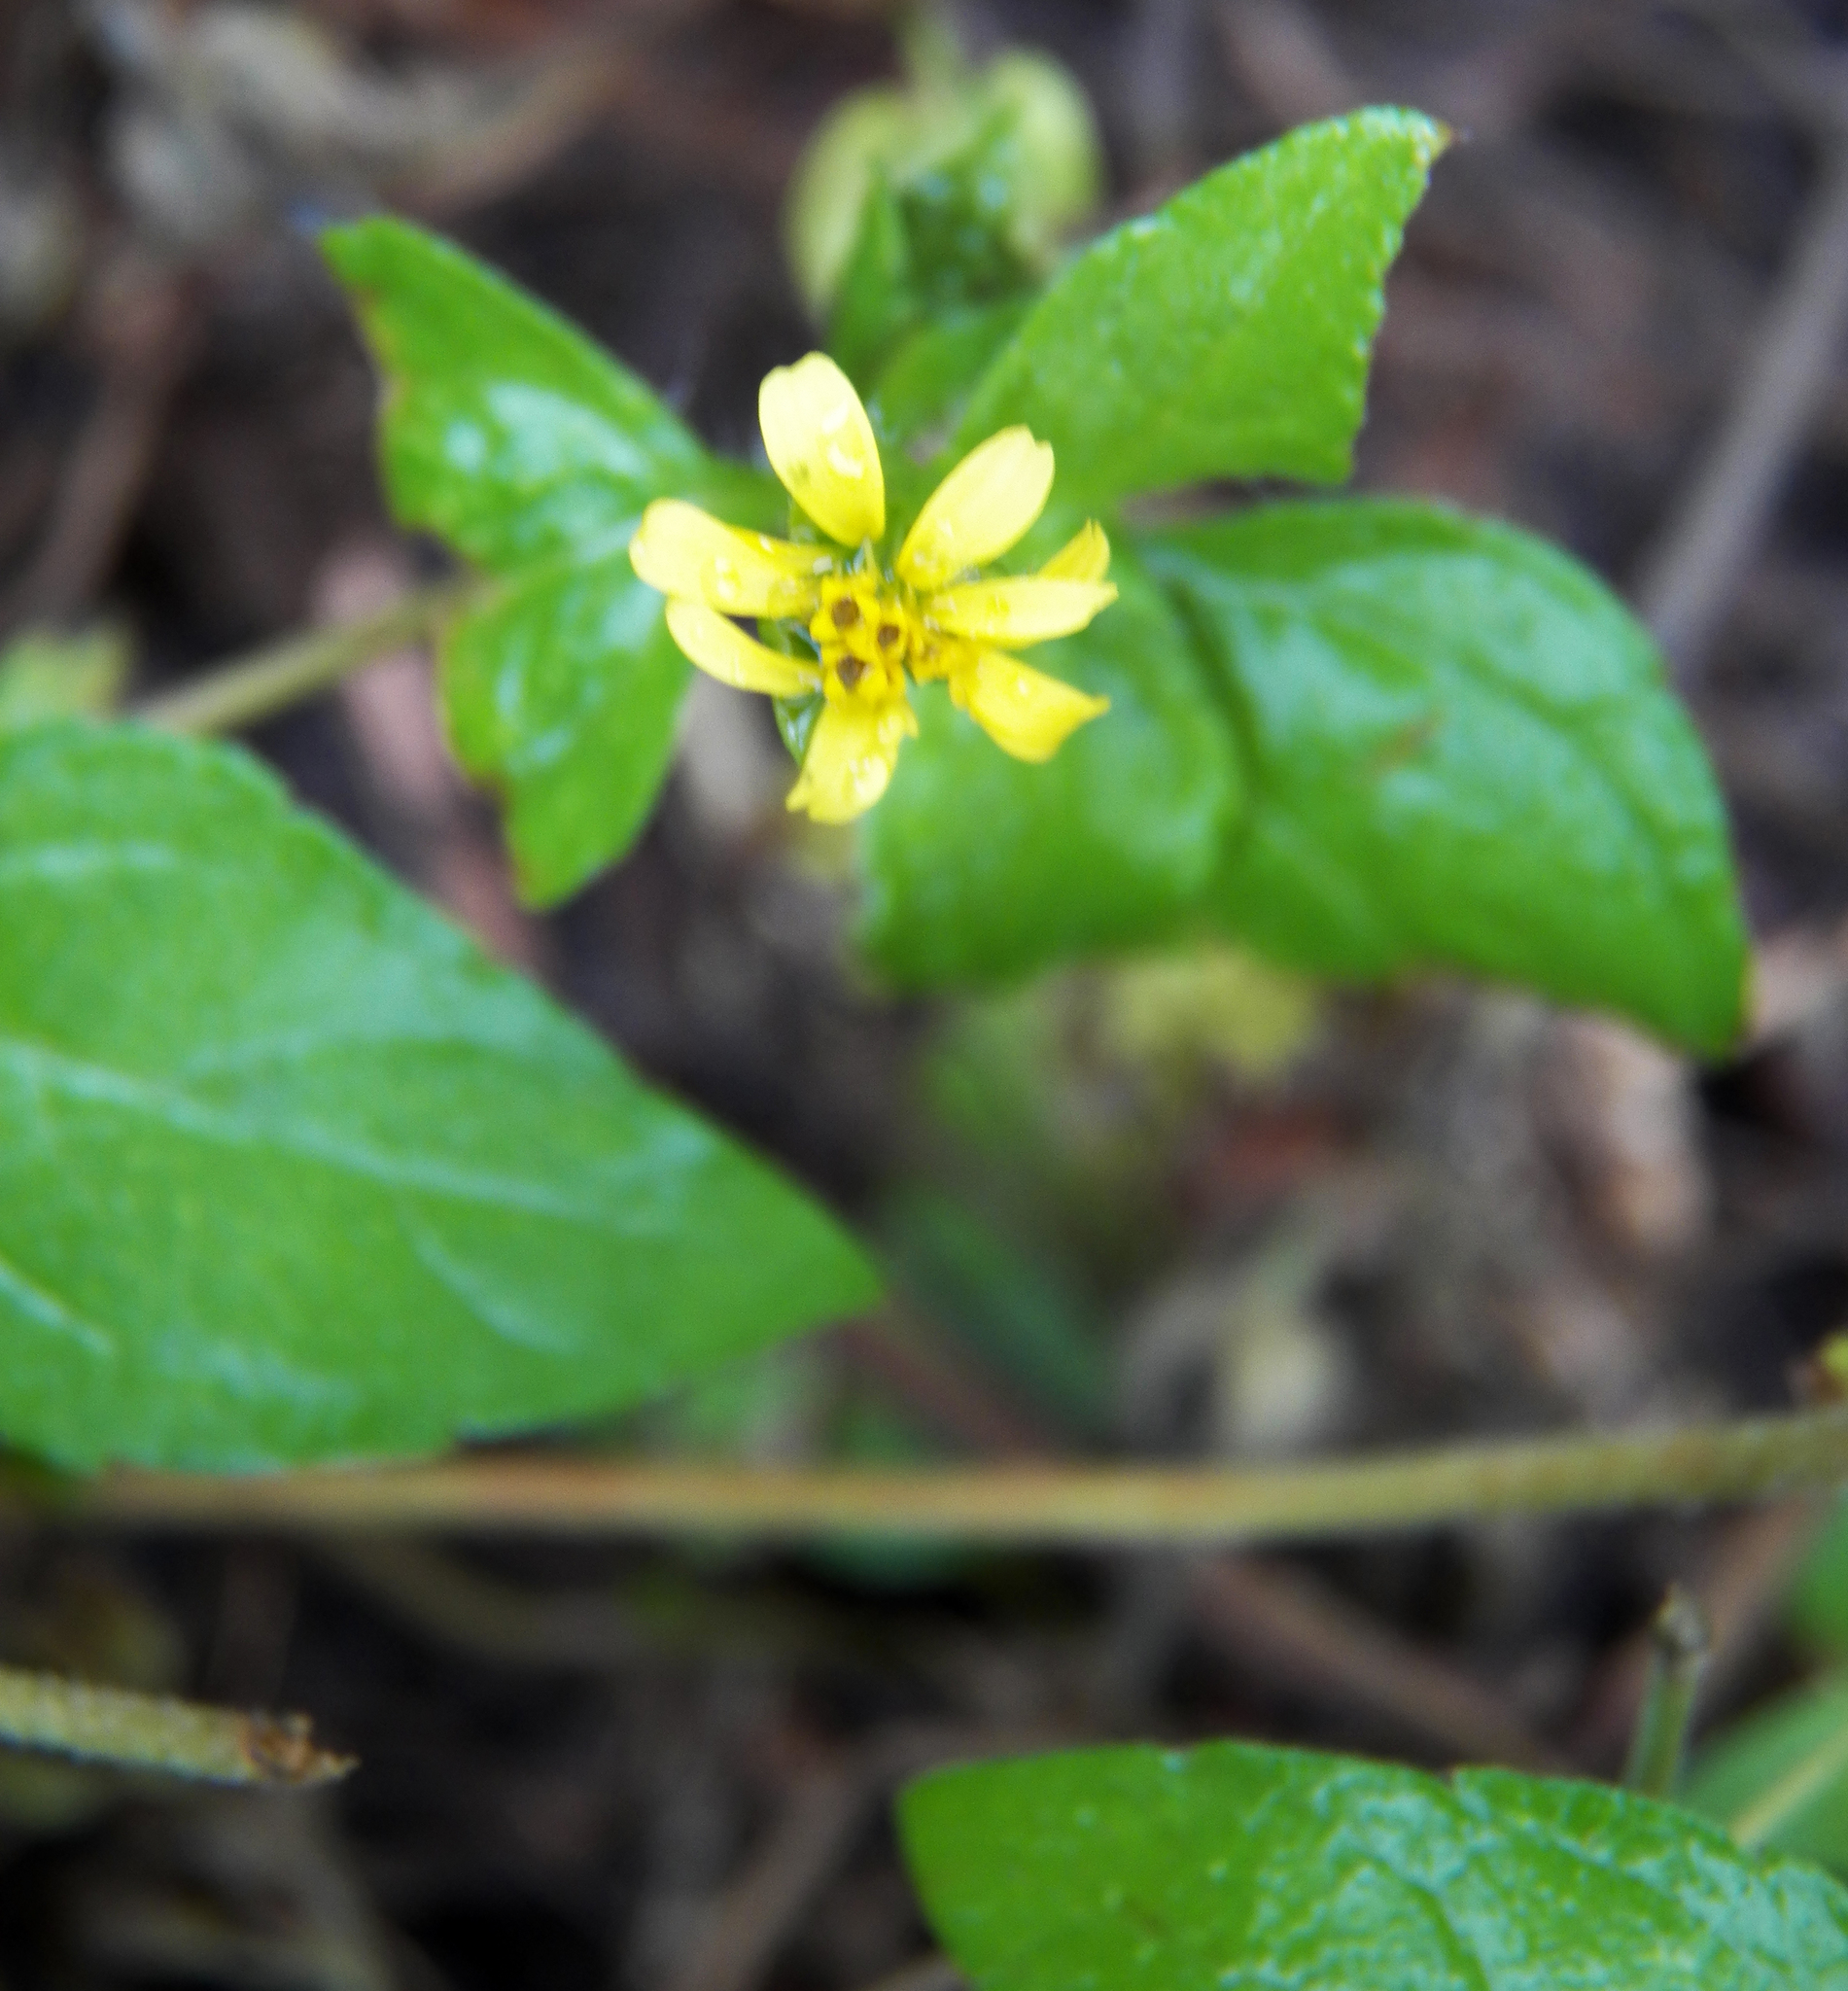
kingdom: Plantae
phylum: Tracheophyta
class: Magnoliopsida
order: Asterales
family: Asteraceae
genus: Calyptocarpus
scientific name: Calyptocarpus vialis
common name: Straggler daisy
